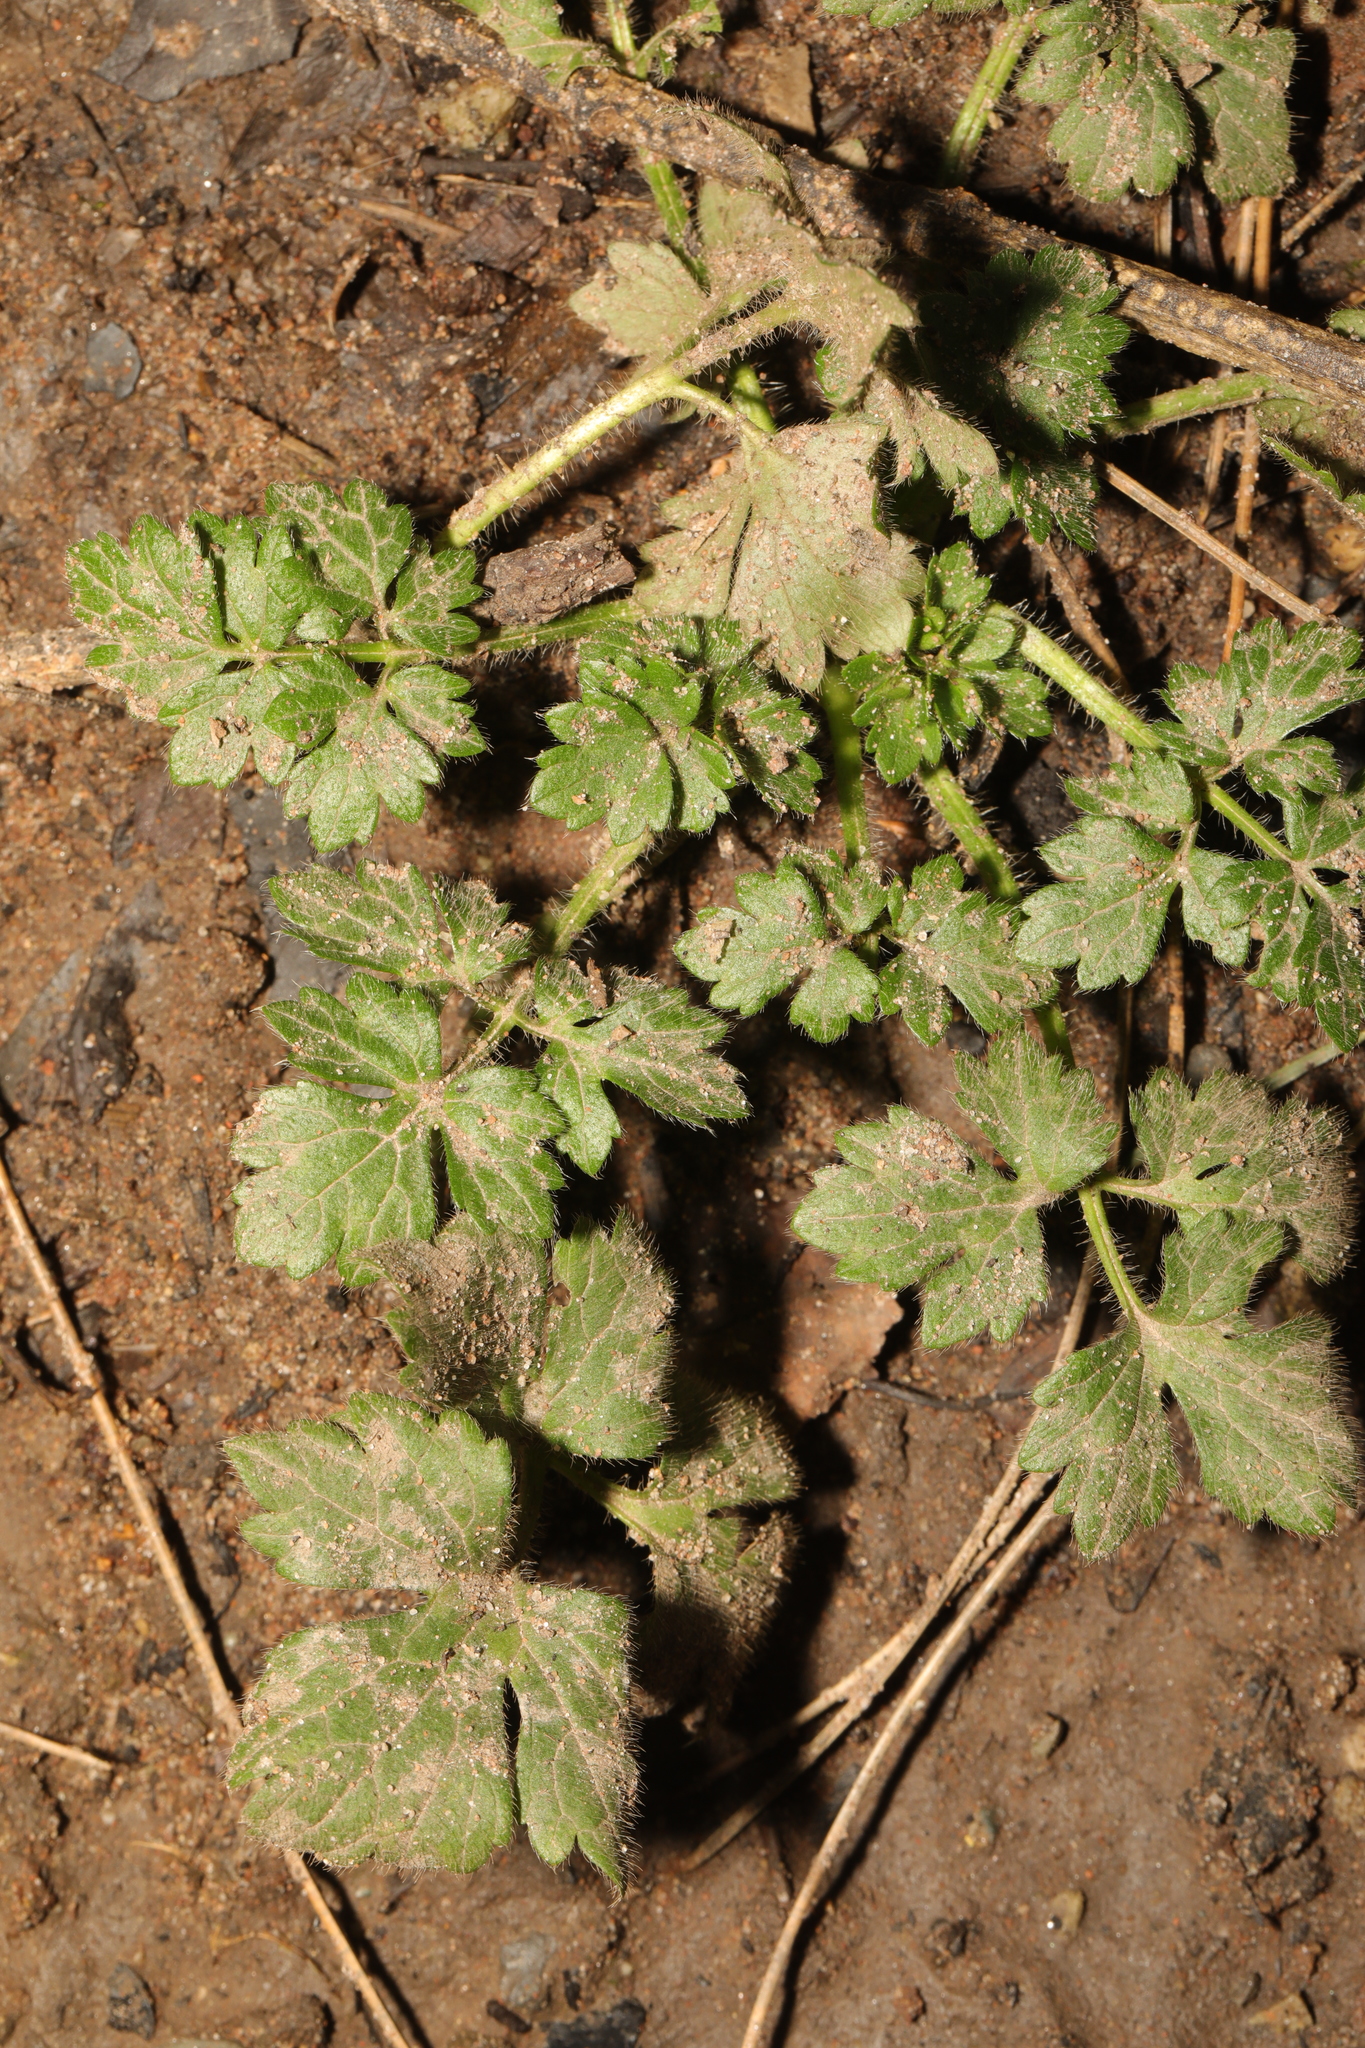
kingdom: Plantae
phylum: Tracheophyta
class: Magnoliopsida
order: Ranunculales
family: Ranunculaceae
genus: Ranunculus
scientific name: Ranunculus repens
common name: Creeping buttercup
